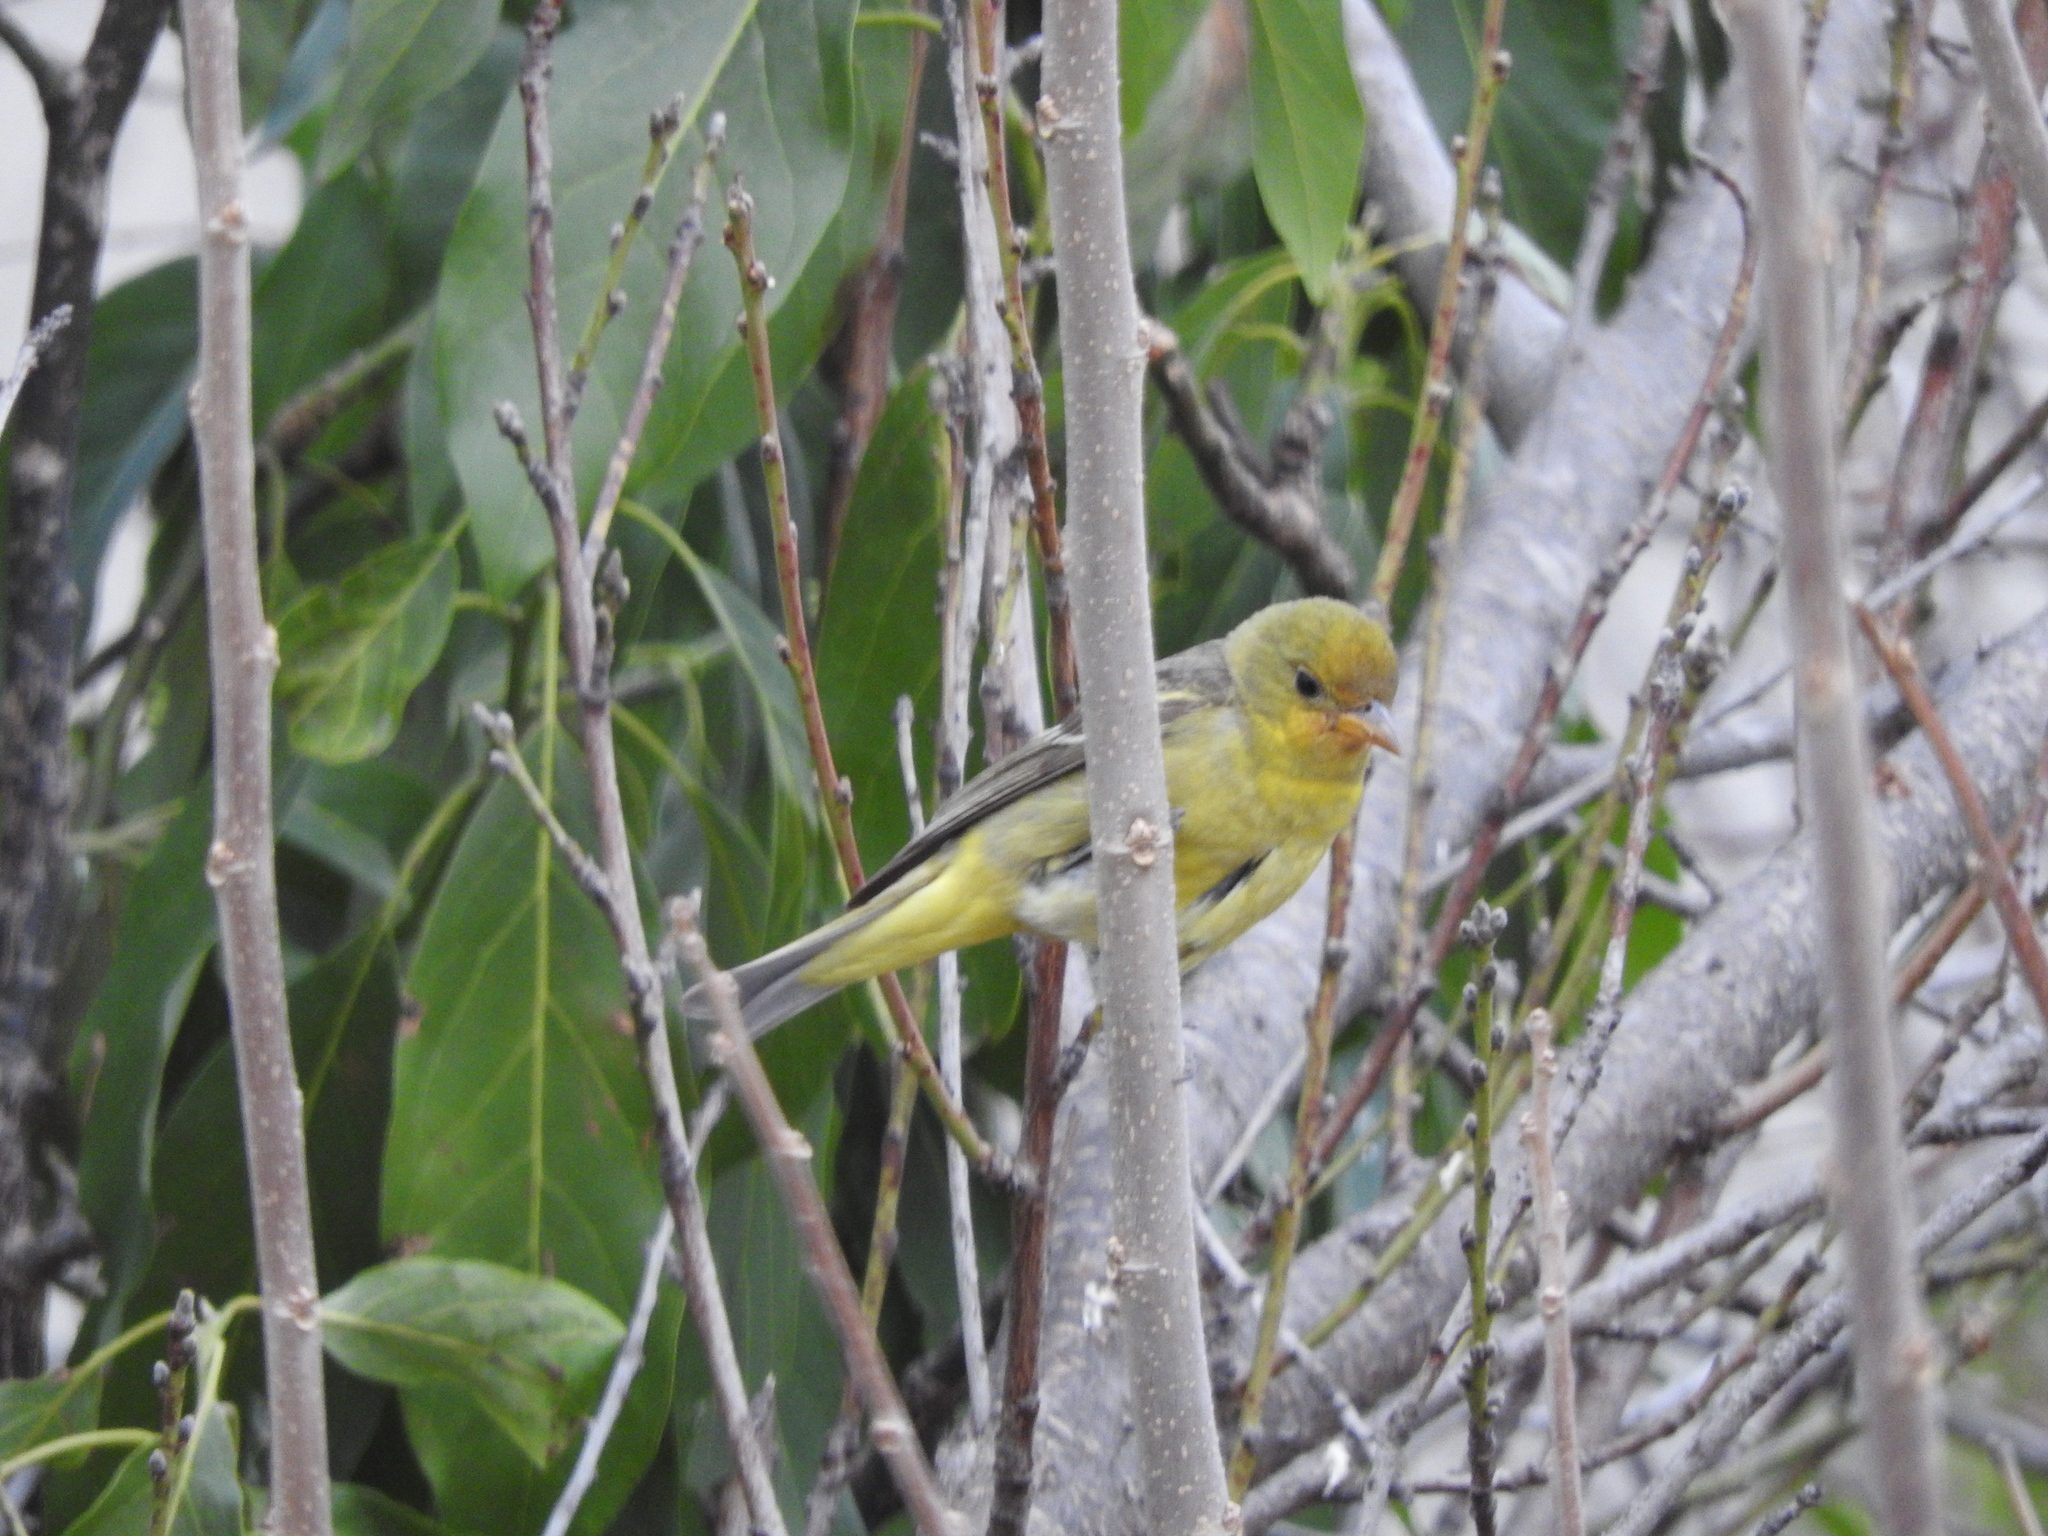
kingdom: Animalia
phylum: Chordata
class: Aves
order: Passeriformes
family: Cardinalidae
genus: Piranga
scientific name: Piranga ludoviciana
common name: Western tanager
